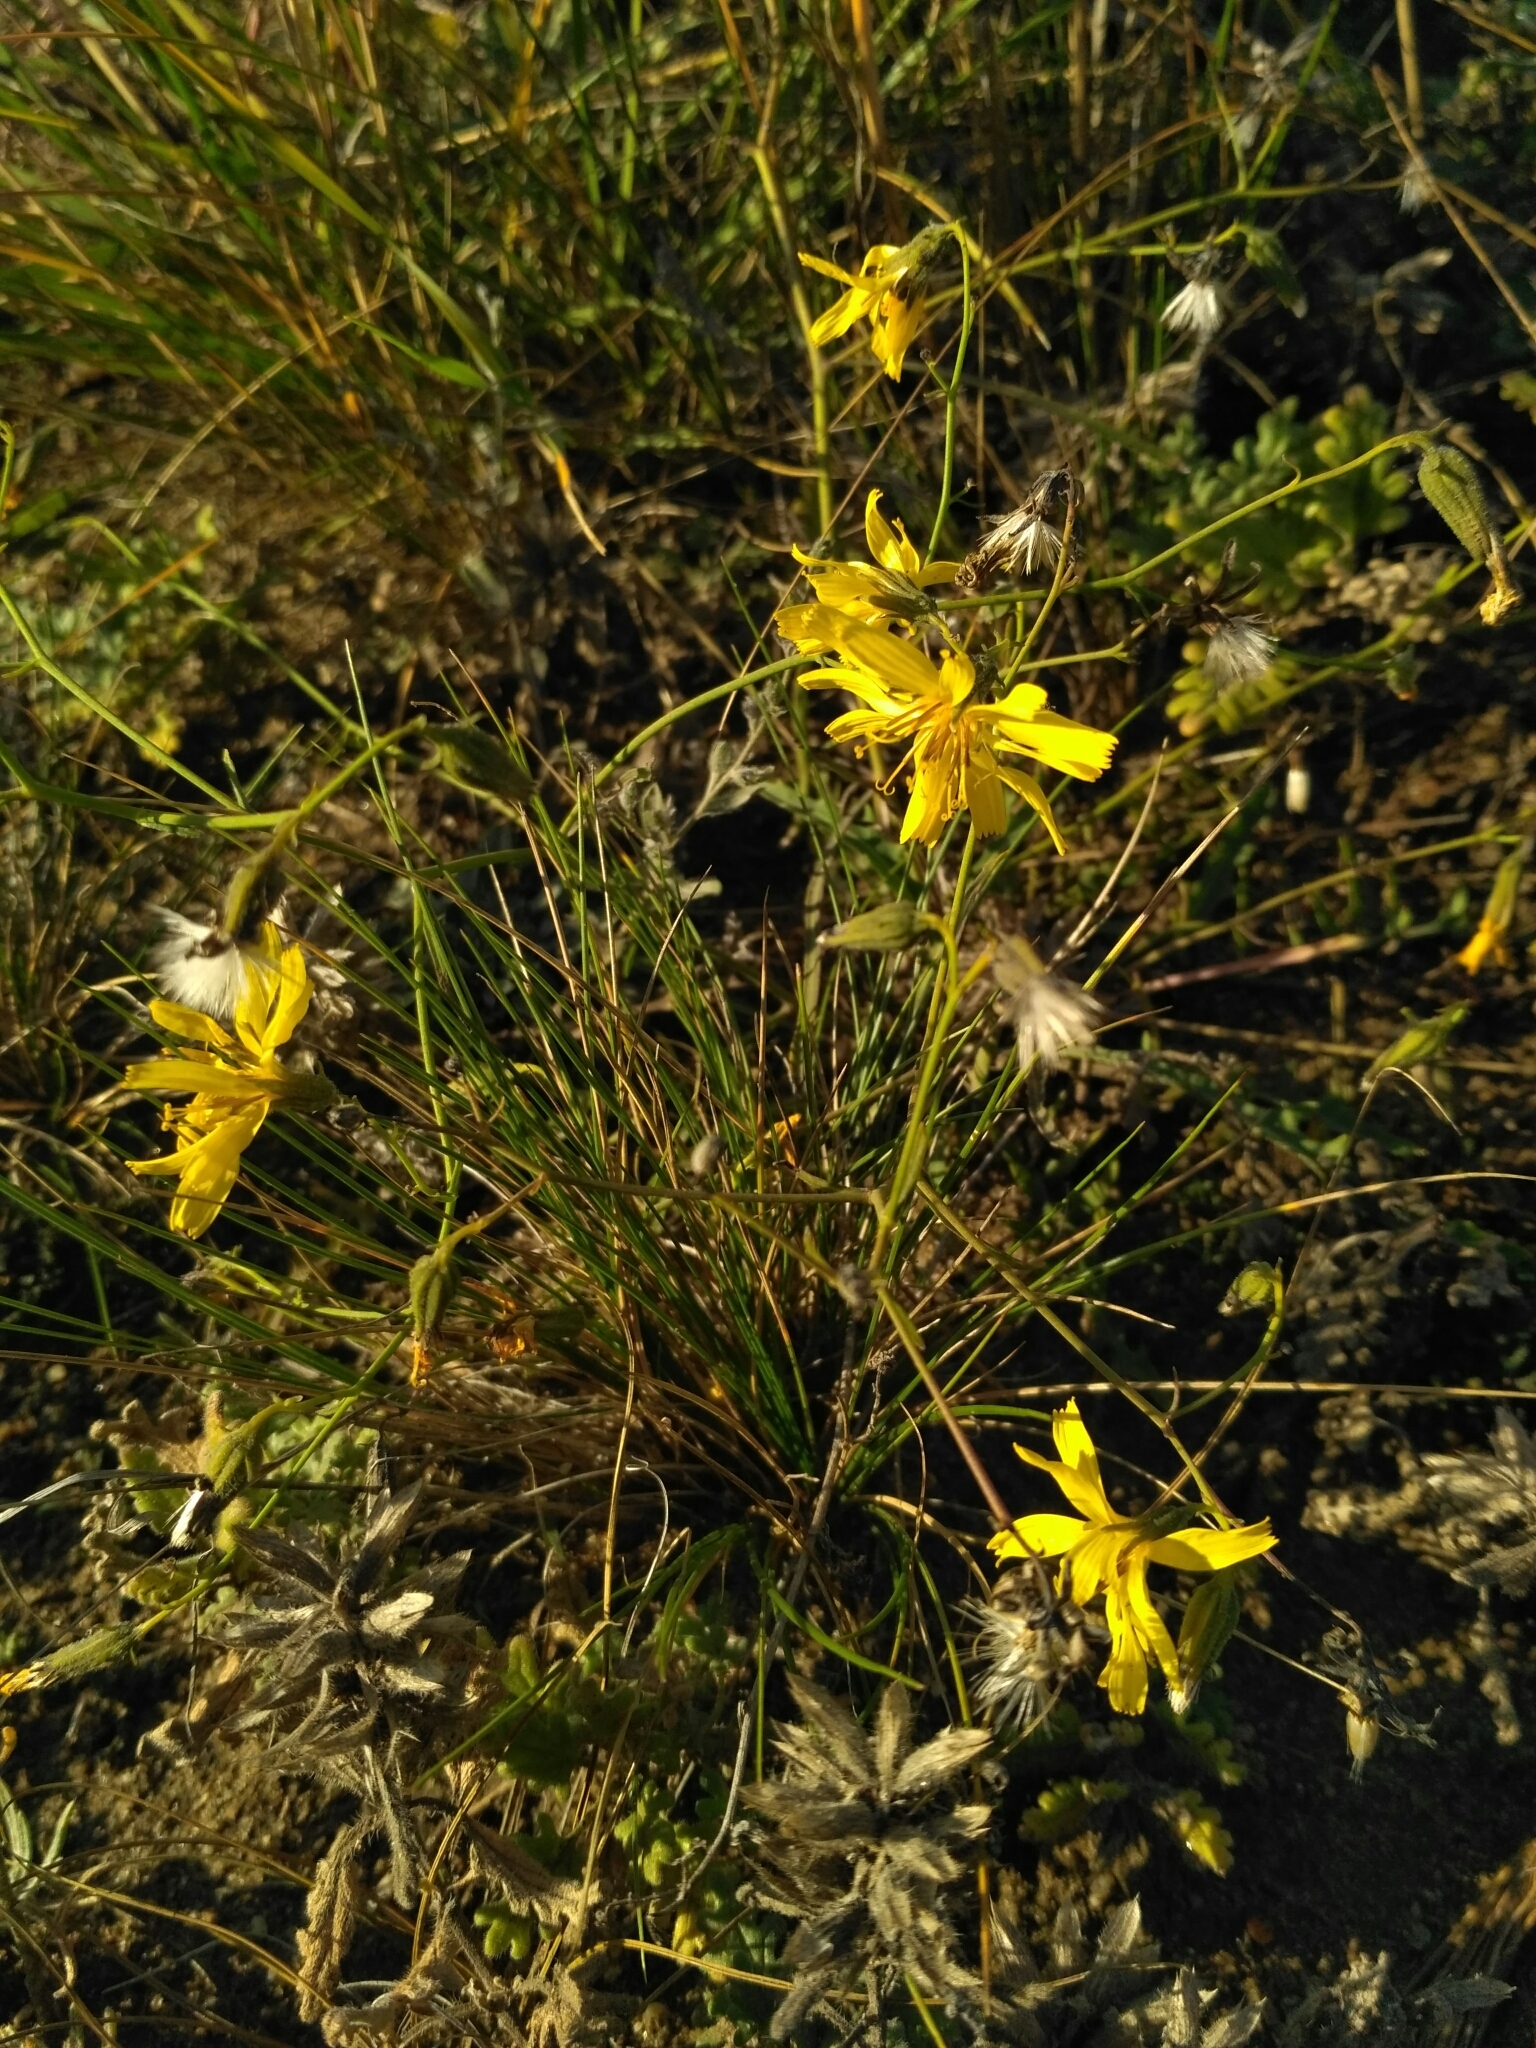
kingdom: Plantae
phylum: Tracheophyta
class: Magnoliopsida
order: Asterales
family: Asteraceae
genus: Crepidiastrum
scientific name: Crepidiastrum tenuifolium
